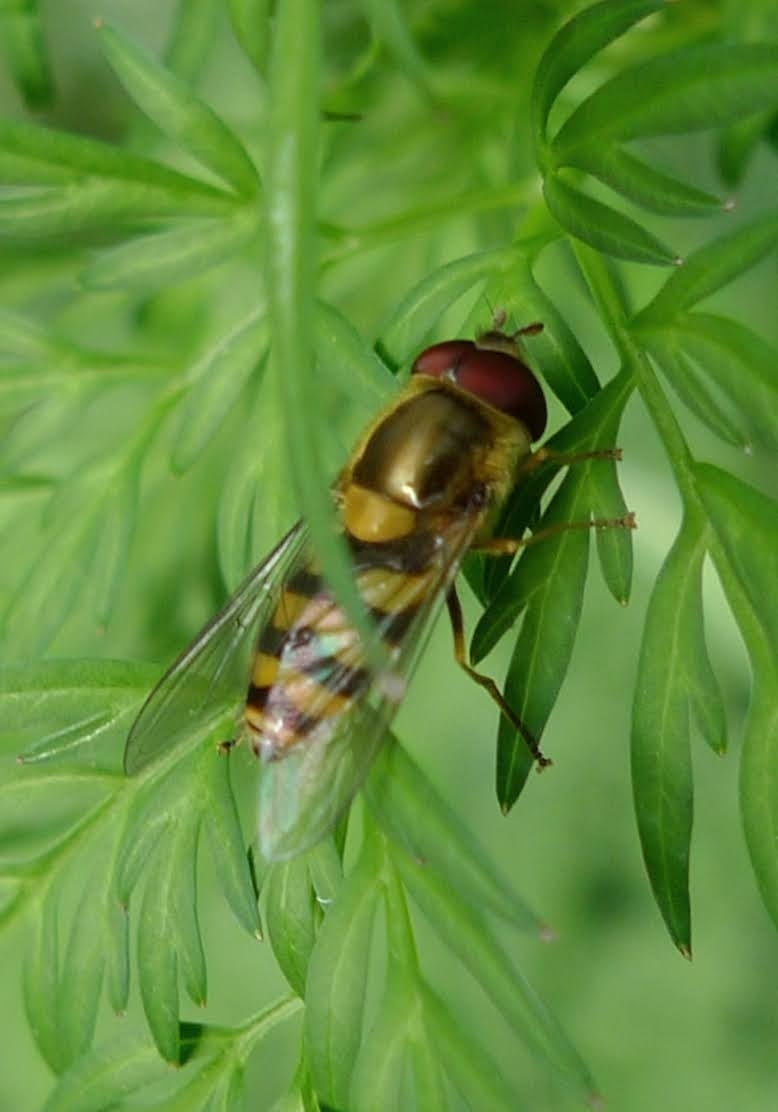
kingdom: Animalia
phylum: Arthropoda
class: Insecta
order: Diptera
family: Syrphidae
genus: Syrphus
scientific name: Syrphus
